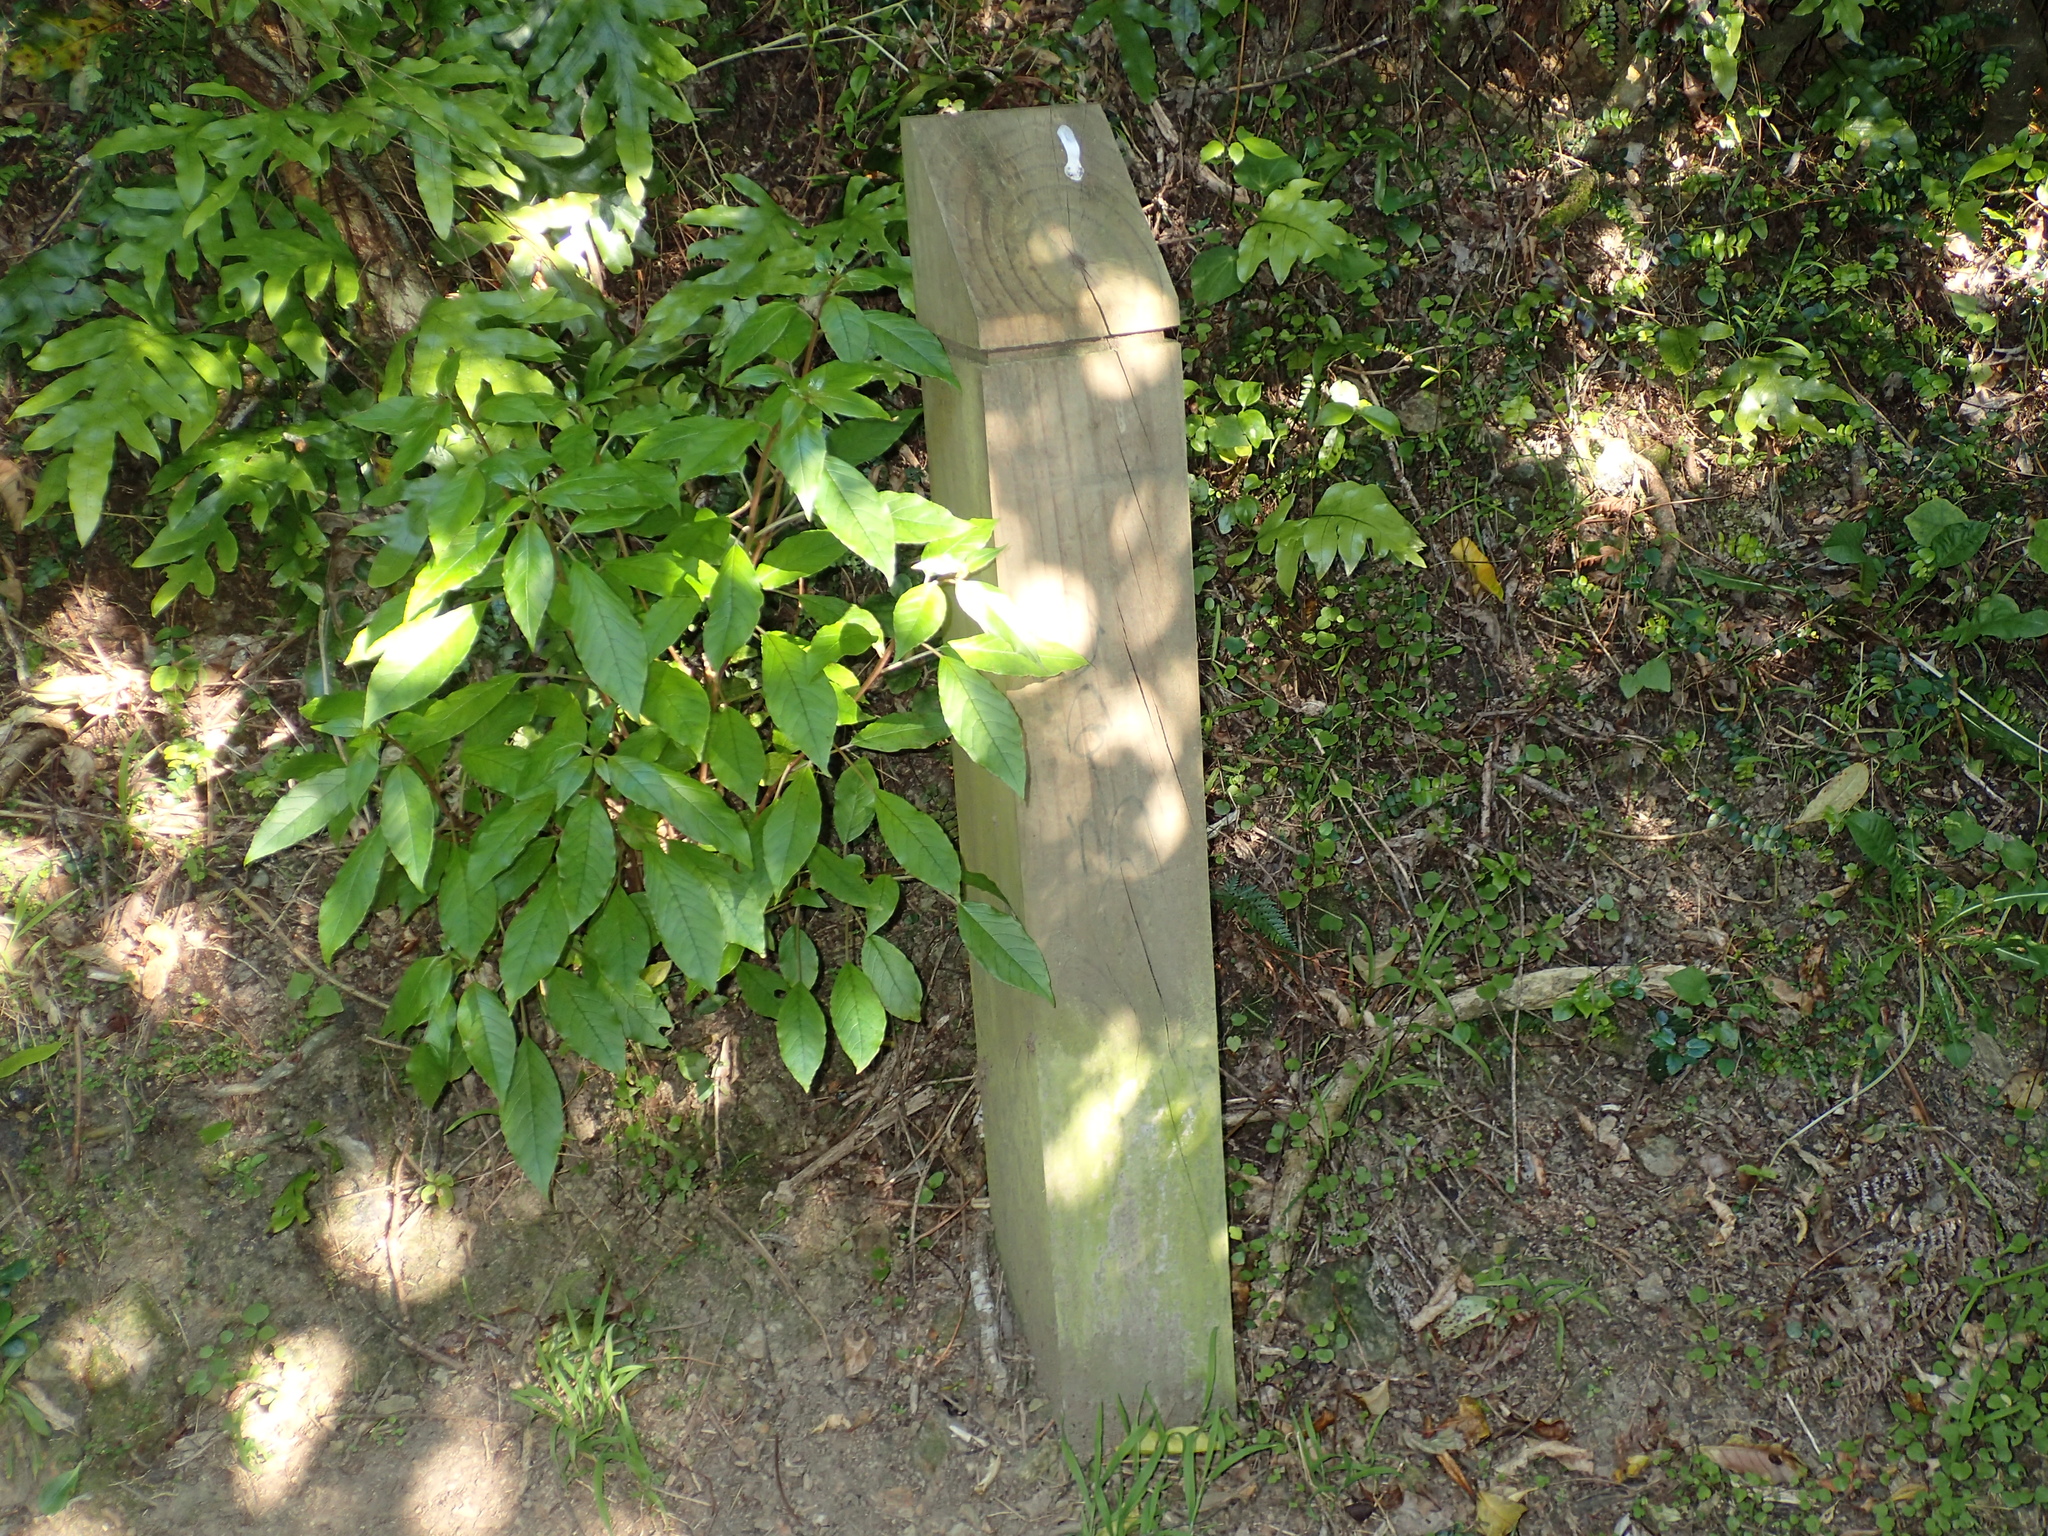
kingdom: Plantae
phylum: Tracheophyta
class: Magnoliopsida
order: Myrtales
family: Onagraceae
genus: Fuchsia
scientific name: Fuchsia excorticata
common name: Tree fuchsia
